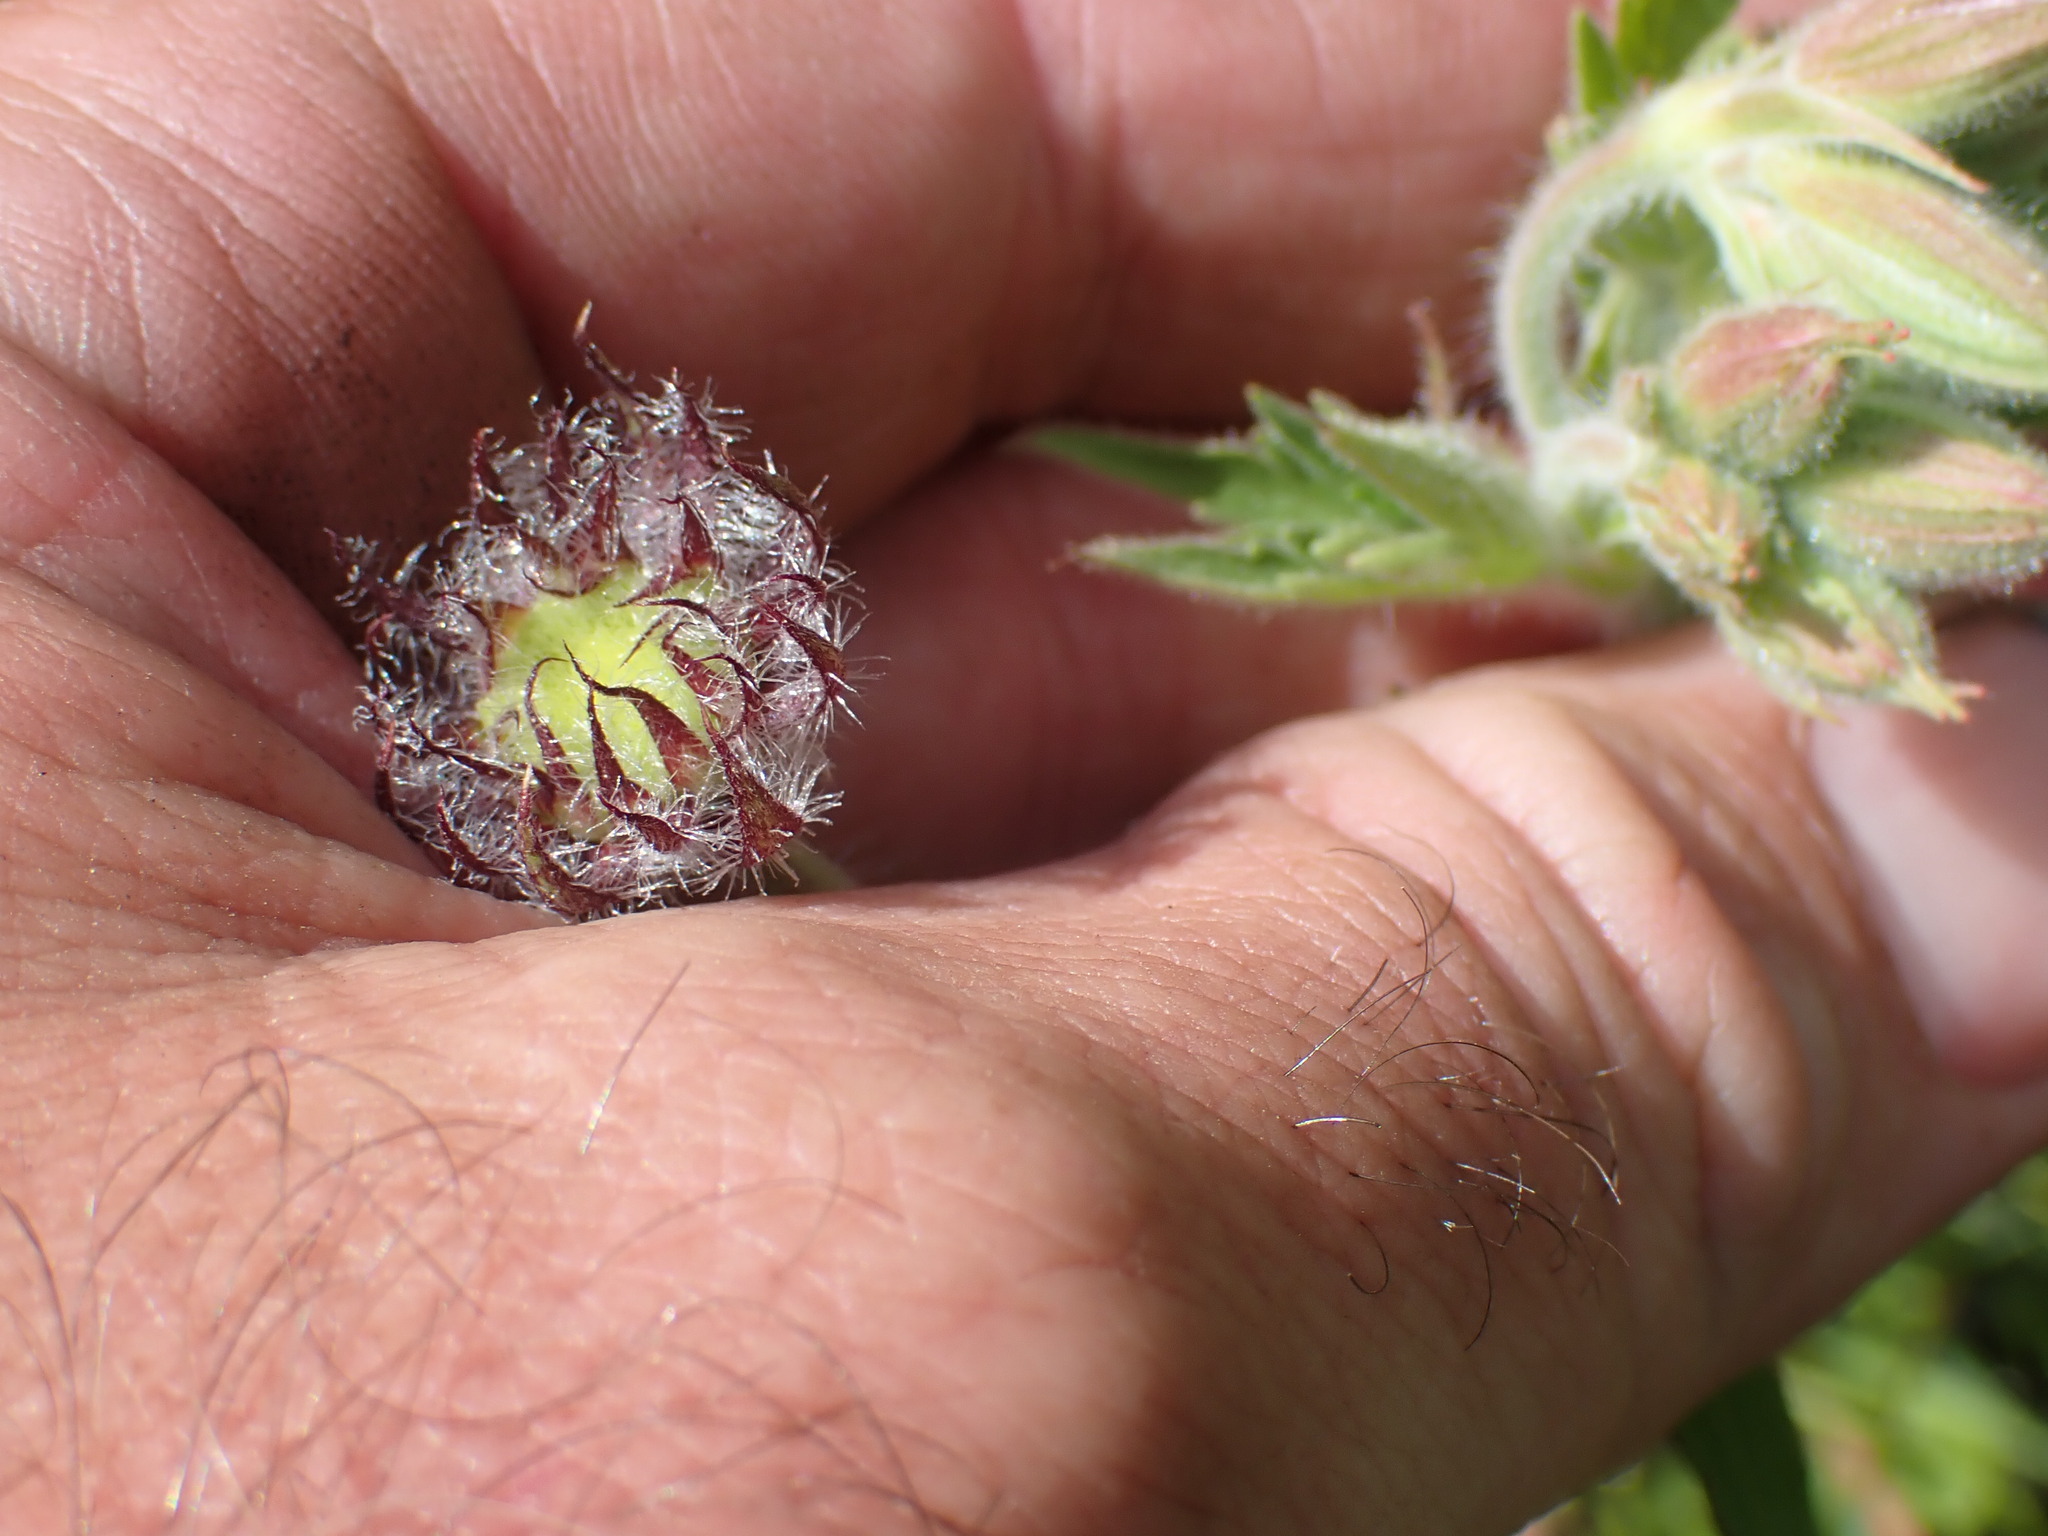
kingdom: Plantae
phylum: Tracheophyta
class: Magnoliopsida
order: Asterales
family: Asteraceae
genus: Gaillardia
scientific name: Gaillardia aristata
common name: Blanket-flower
